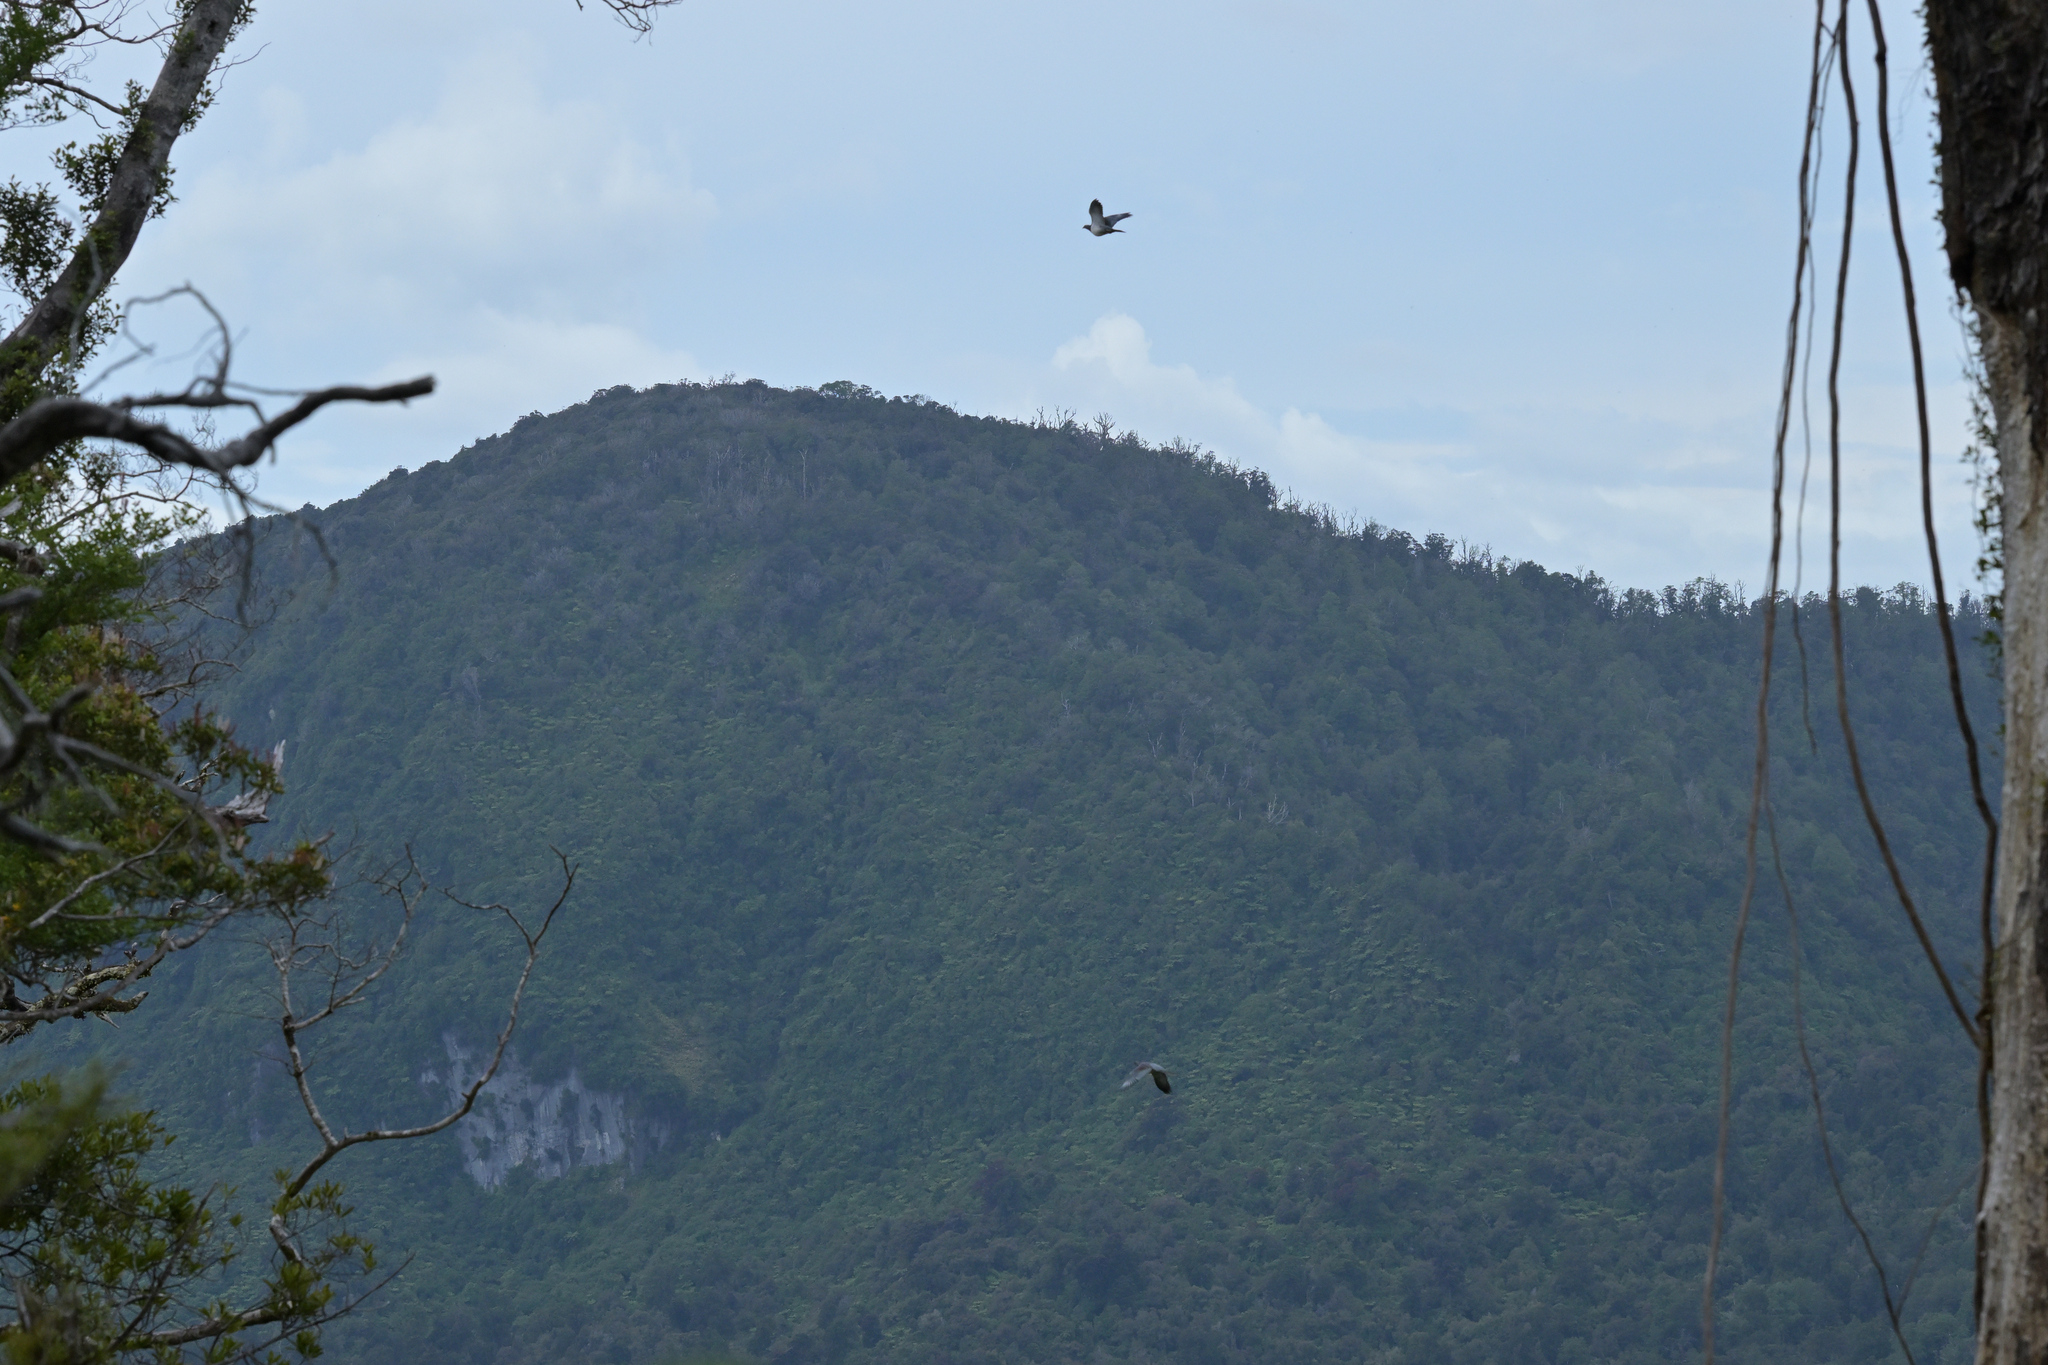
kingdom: Animalia
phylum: Chordata
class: Aves
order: Columbiformes
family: Columbidae
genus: Hemiphaga
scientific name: Hemiphaga novaeseelandiae
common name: New zealand pigeon
